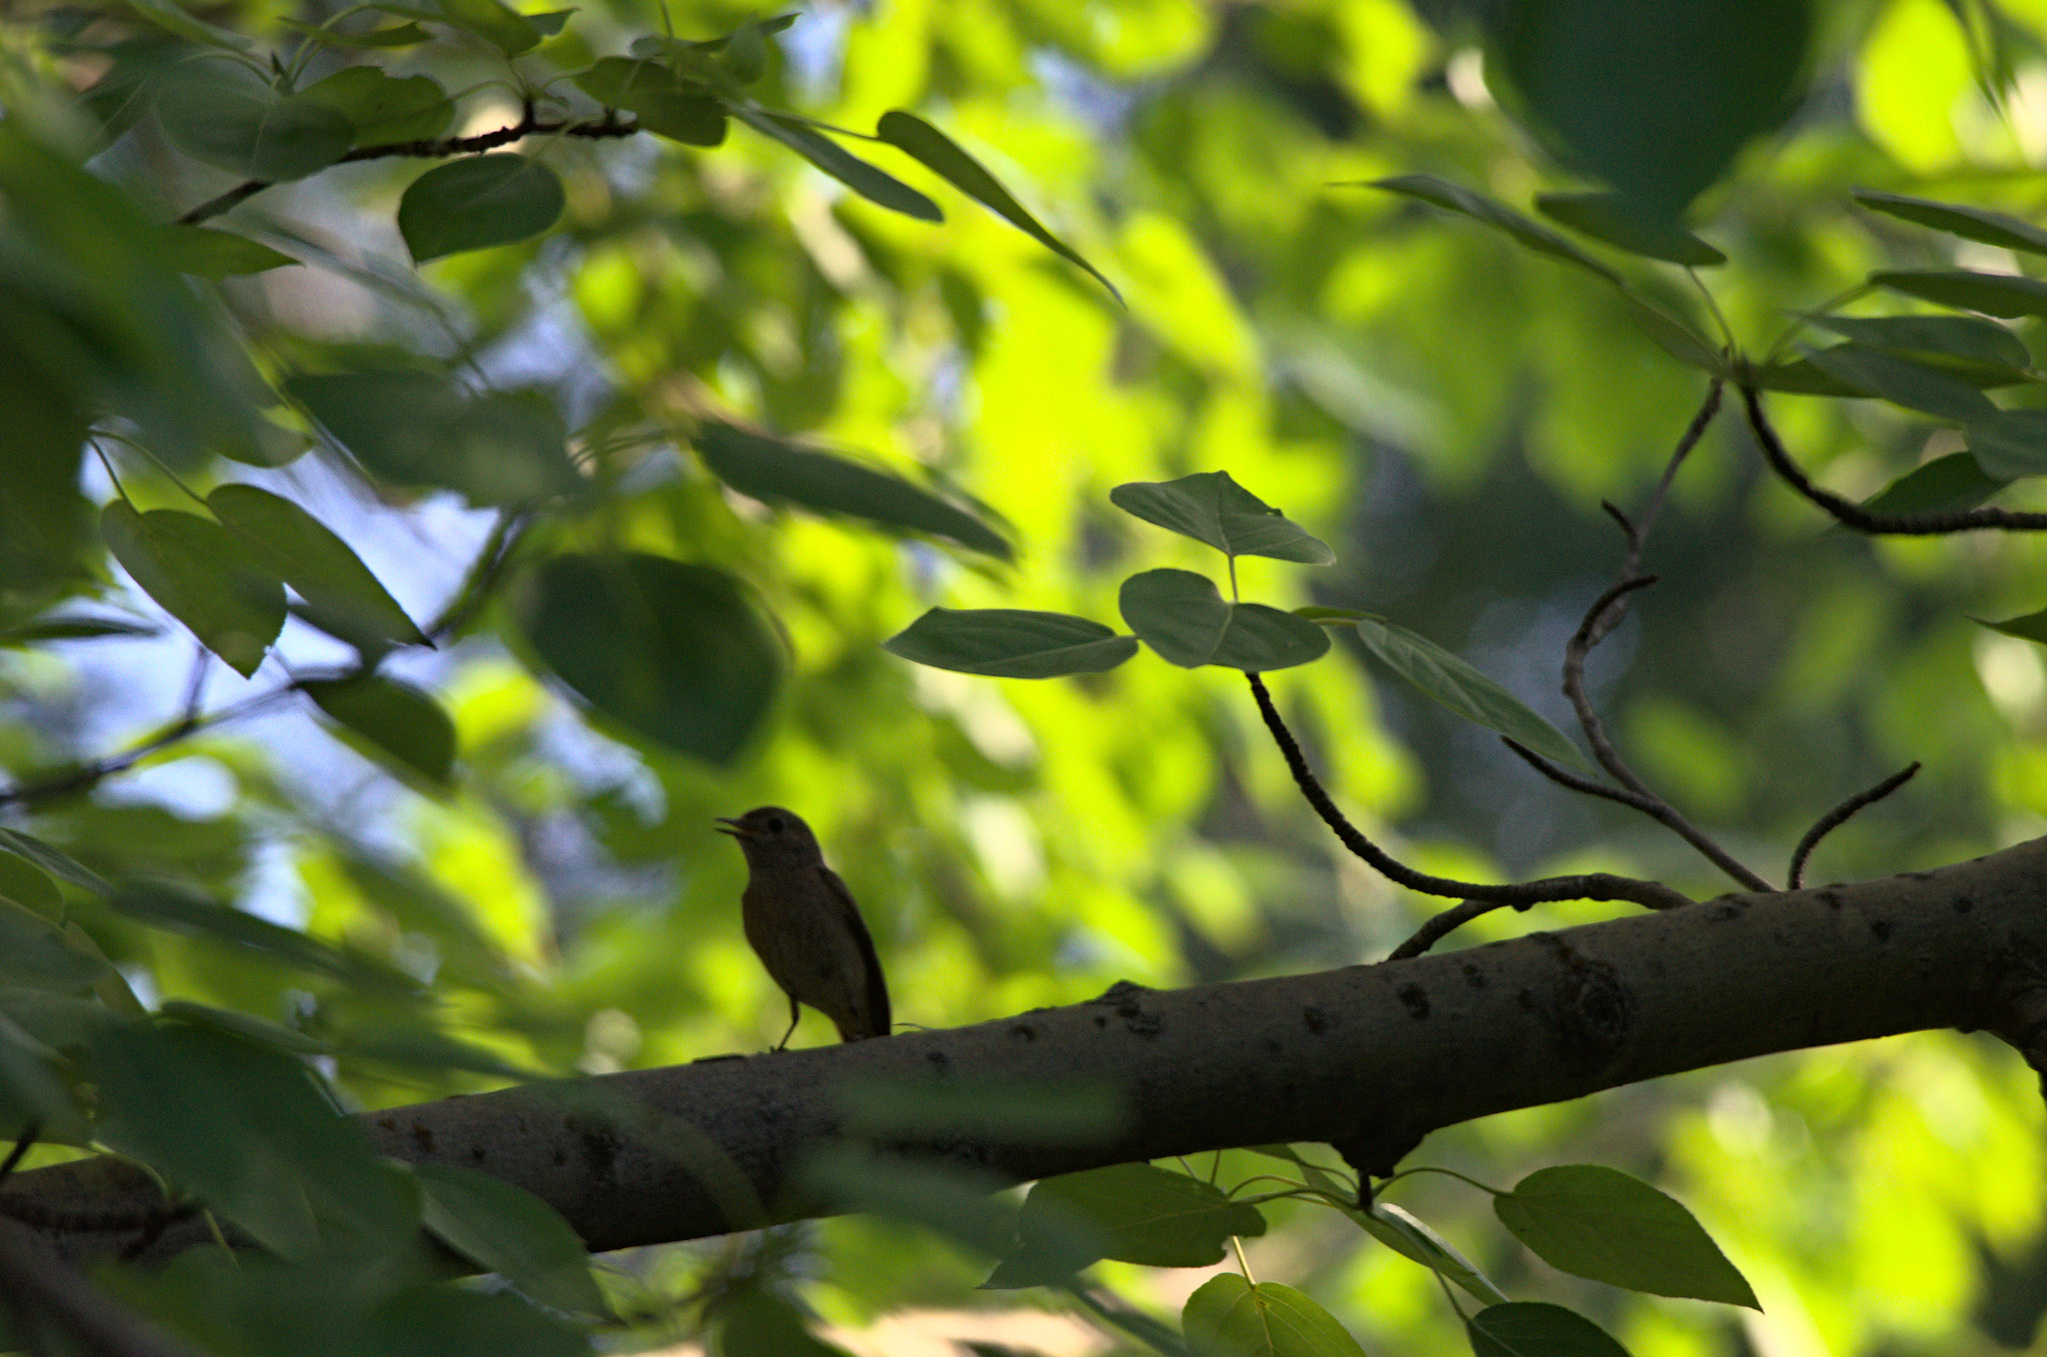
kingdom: Animalia
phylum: Chordata
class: Aves
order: Passeriformes
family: Muscicapidae
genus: Phoenicurus
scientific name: Phoenicurus
